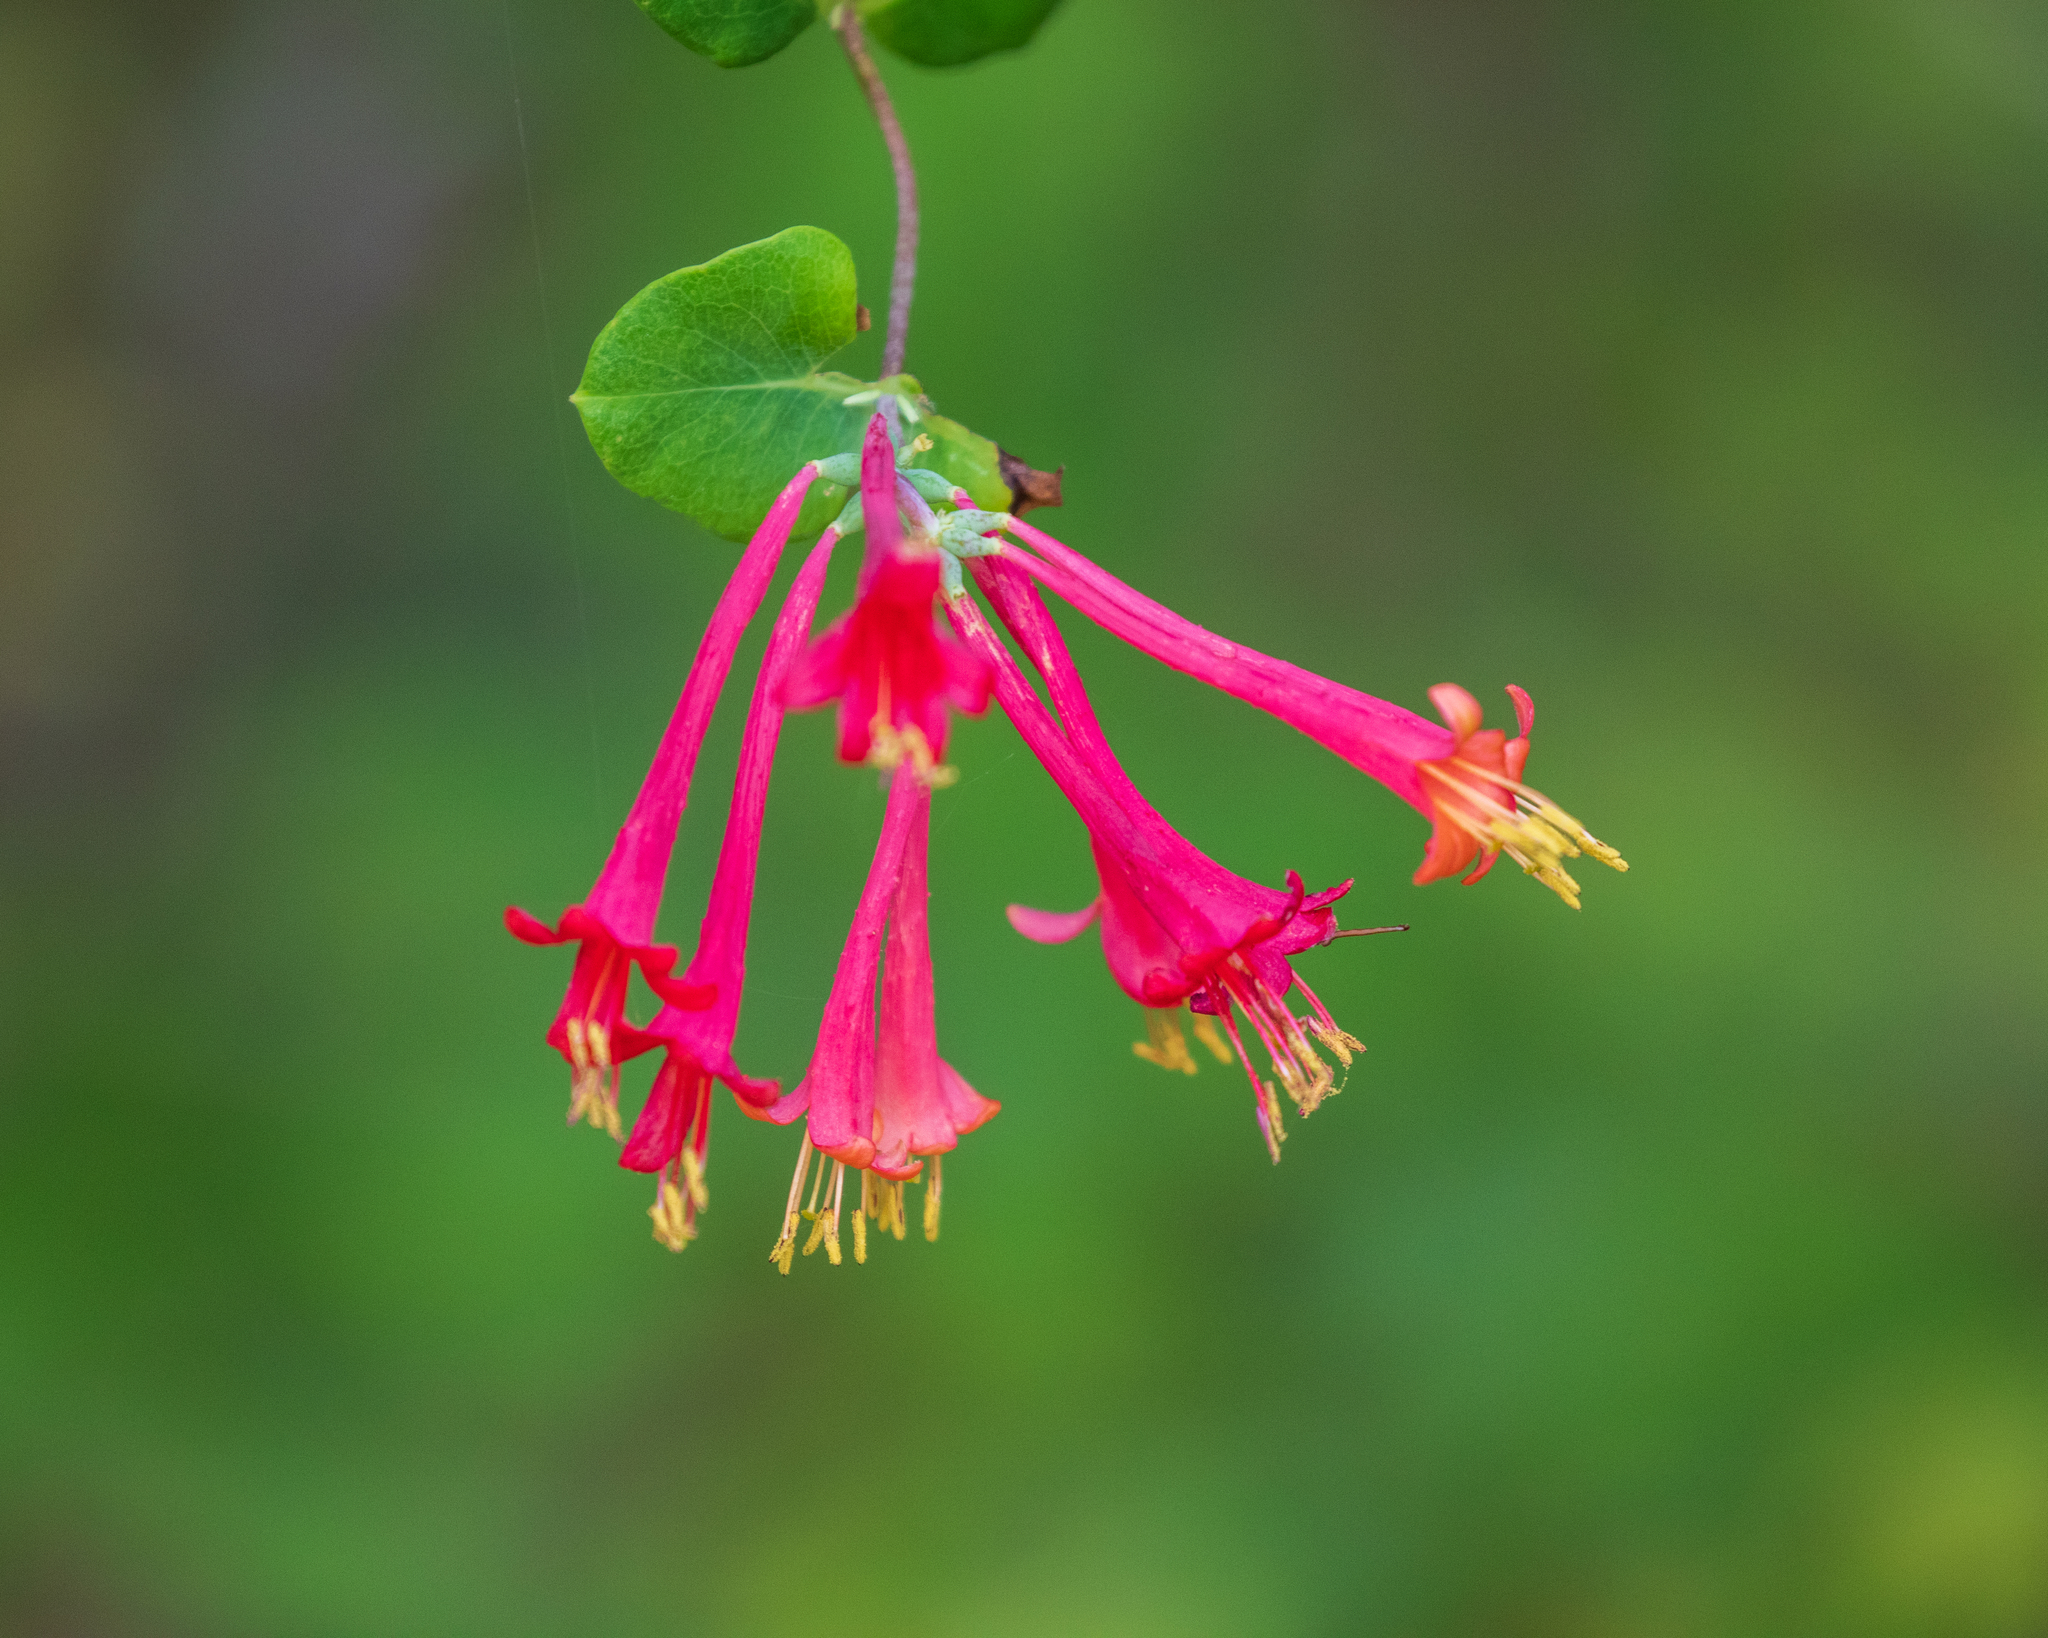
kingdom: Plantae
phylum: Tracheophyta
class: Magnoliopsida
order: Dipsacales
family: Caprifoliaceae
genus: Lonicera
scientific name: Lonicera sempervirens
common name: Coral honeysuckle
